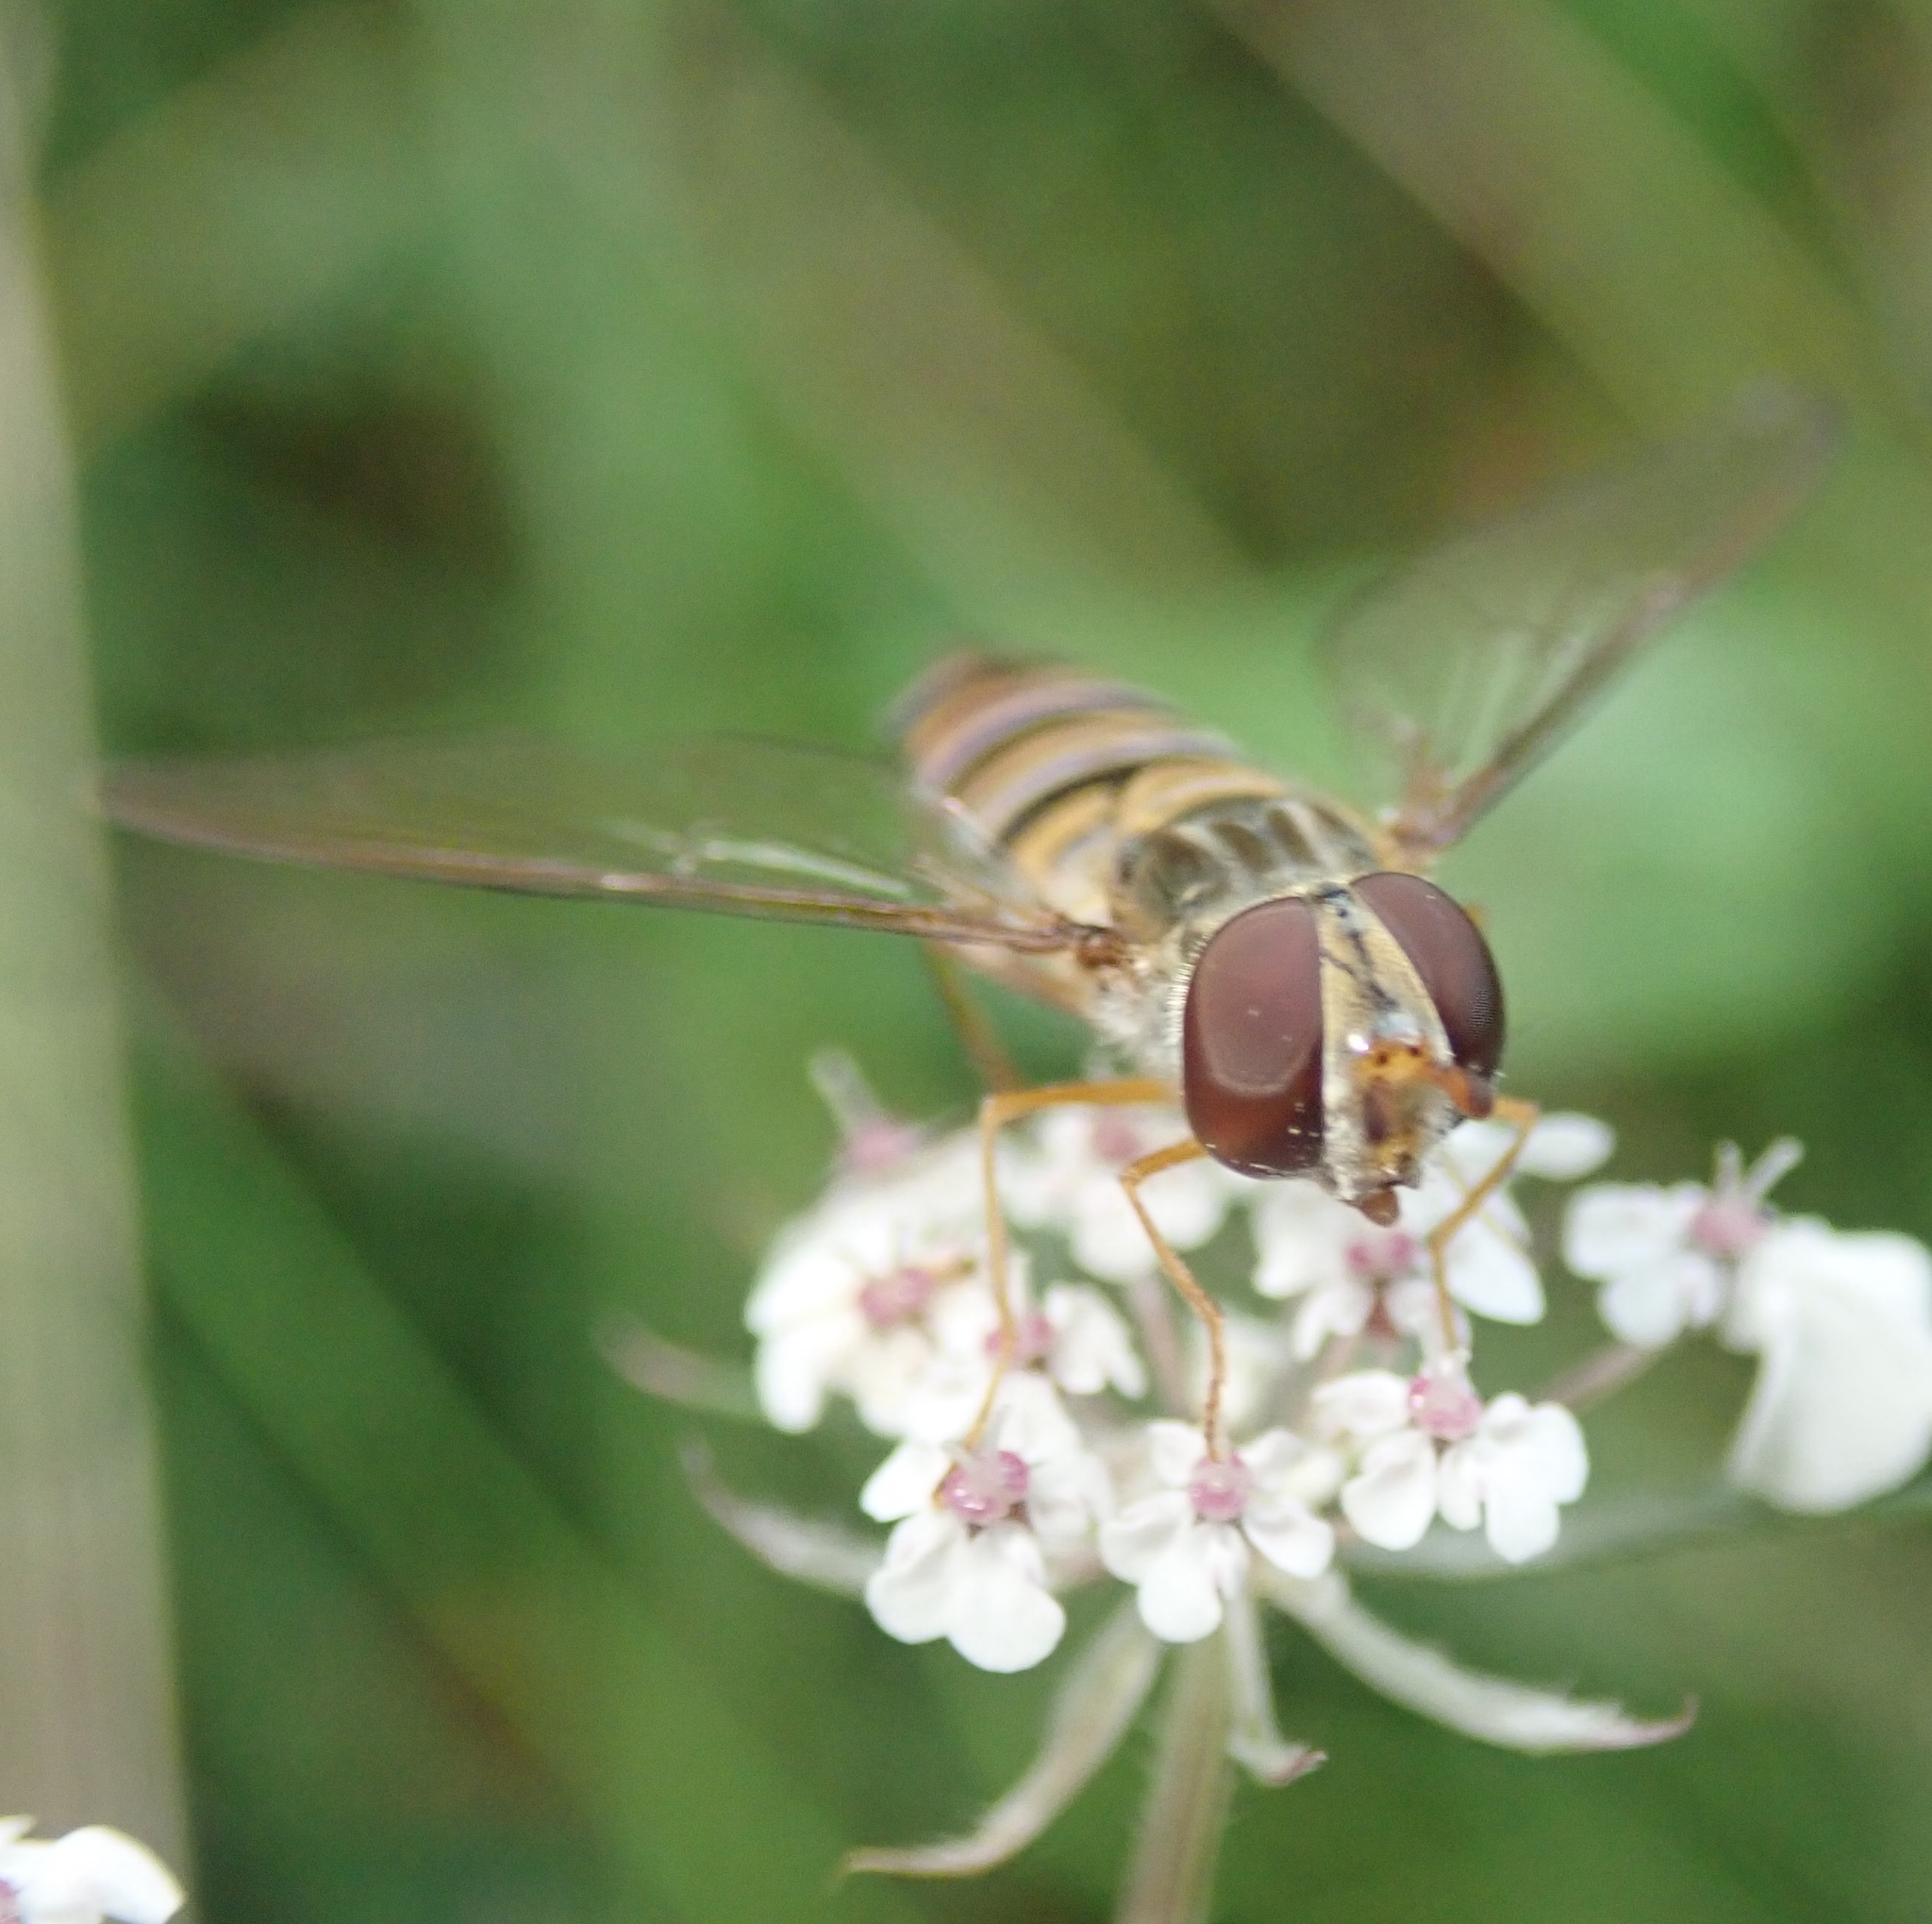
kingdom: Animalia
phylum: Arthropoda
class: Insecta
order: Diptera
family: Syrphidae
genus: Episyrphus
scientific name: Episyrphus balteatus
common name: Marmalade hoverfly
